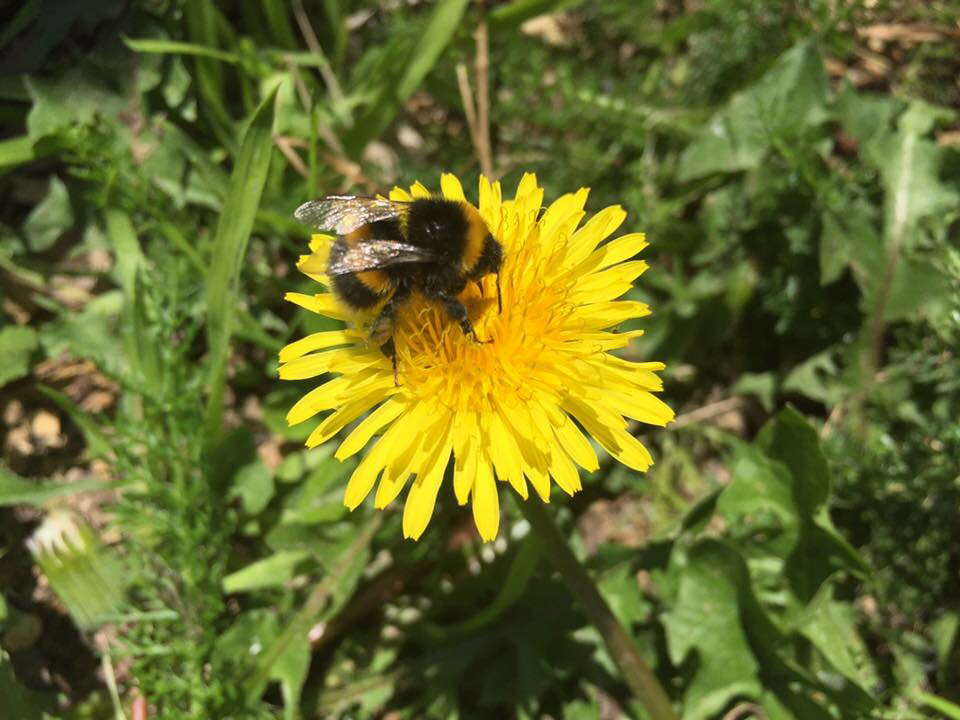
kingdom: Animalia
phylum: Arthropoda
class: Insecta
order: Hymenoptera
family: Apidae
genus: Bombus
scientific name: Bombus terrestris
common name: Buff-tailed bumblebee
